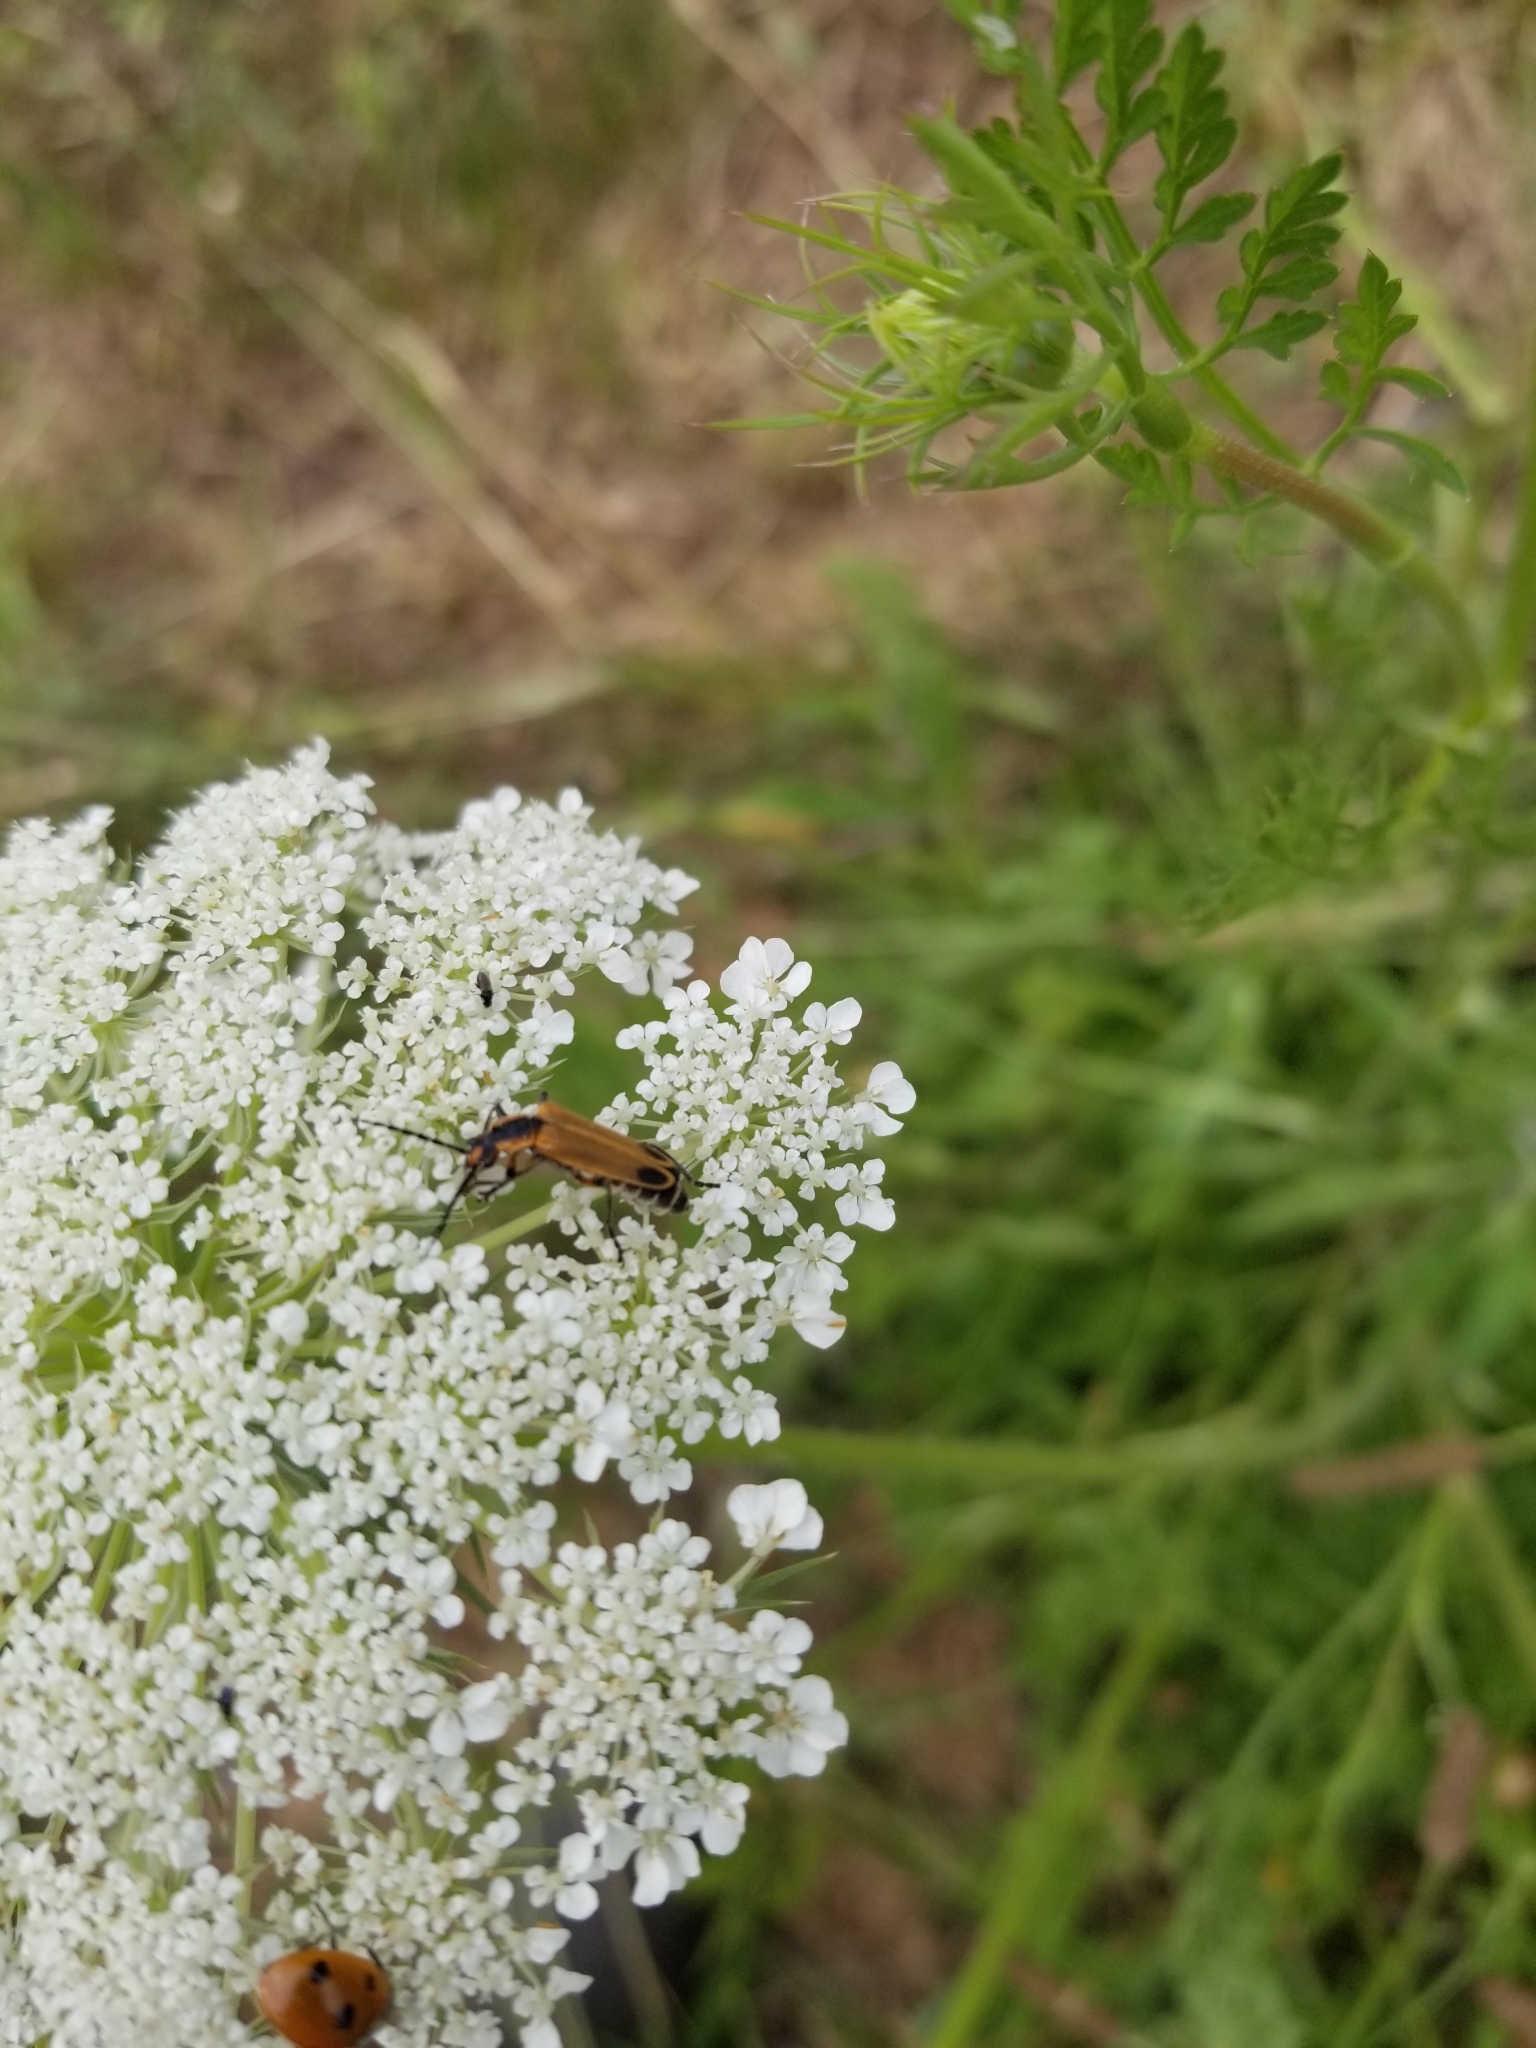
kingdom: Animalia
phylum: Arthropoda
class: Insecta
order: Coleoptera
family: Cantharidae
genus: Chauliognathus
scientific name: Chauliognathus marginatus
